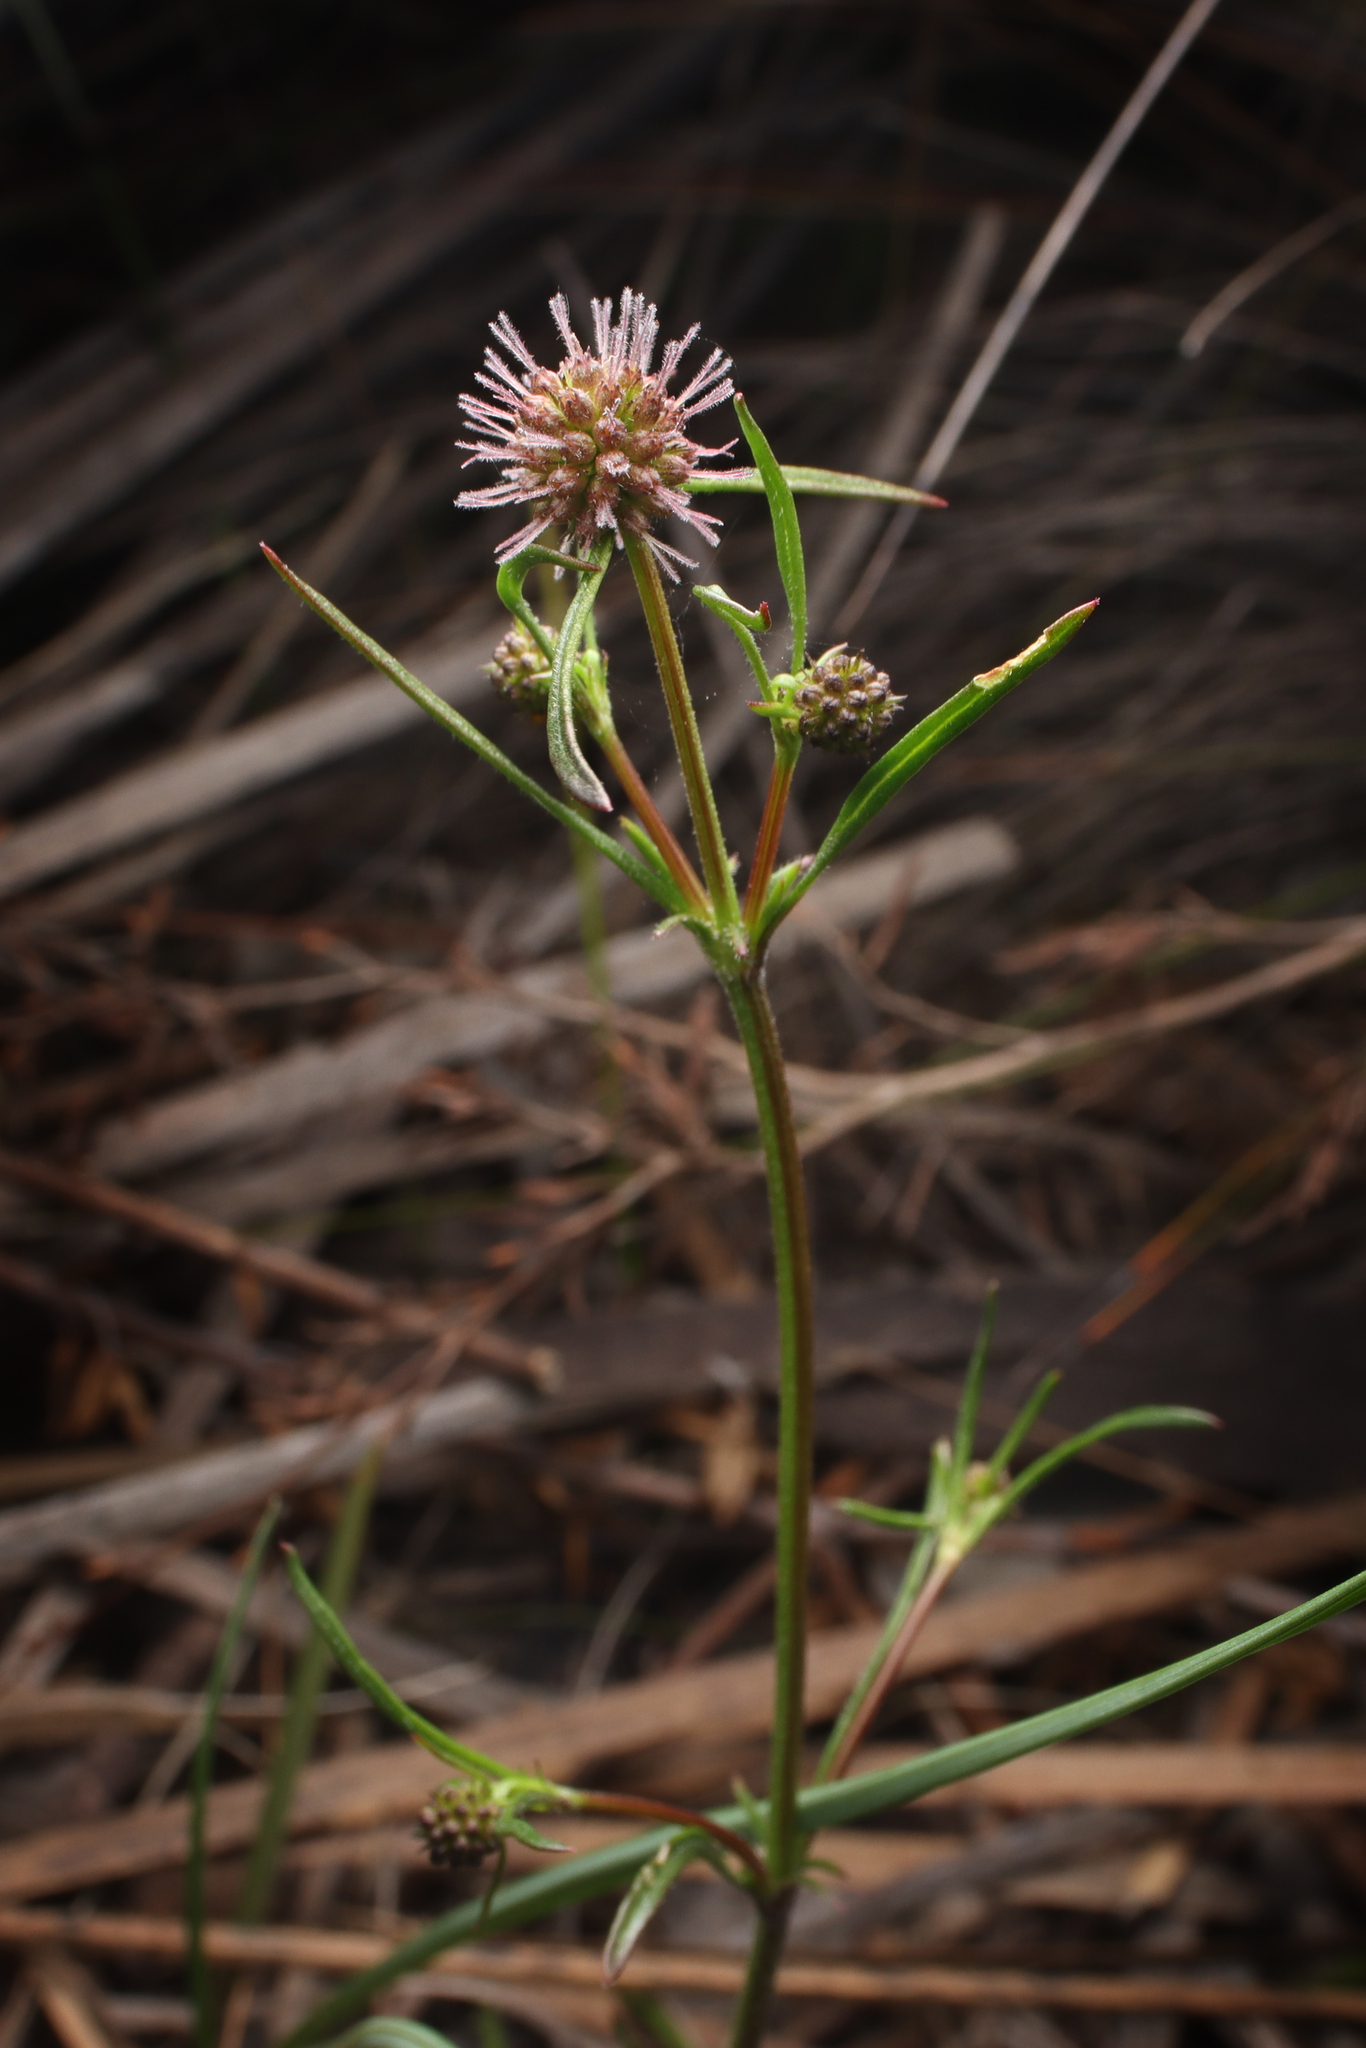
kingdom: Plantae
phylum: Tracheophyta
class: Magnoliopsida
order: Gentianales
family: Rubiaceae
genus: Opercularia
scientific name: Opercularia scabrida
